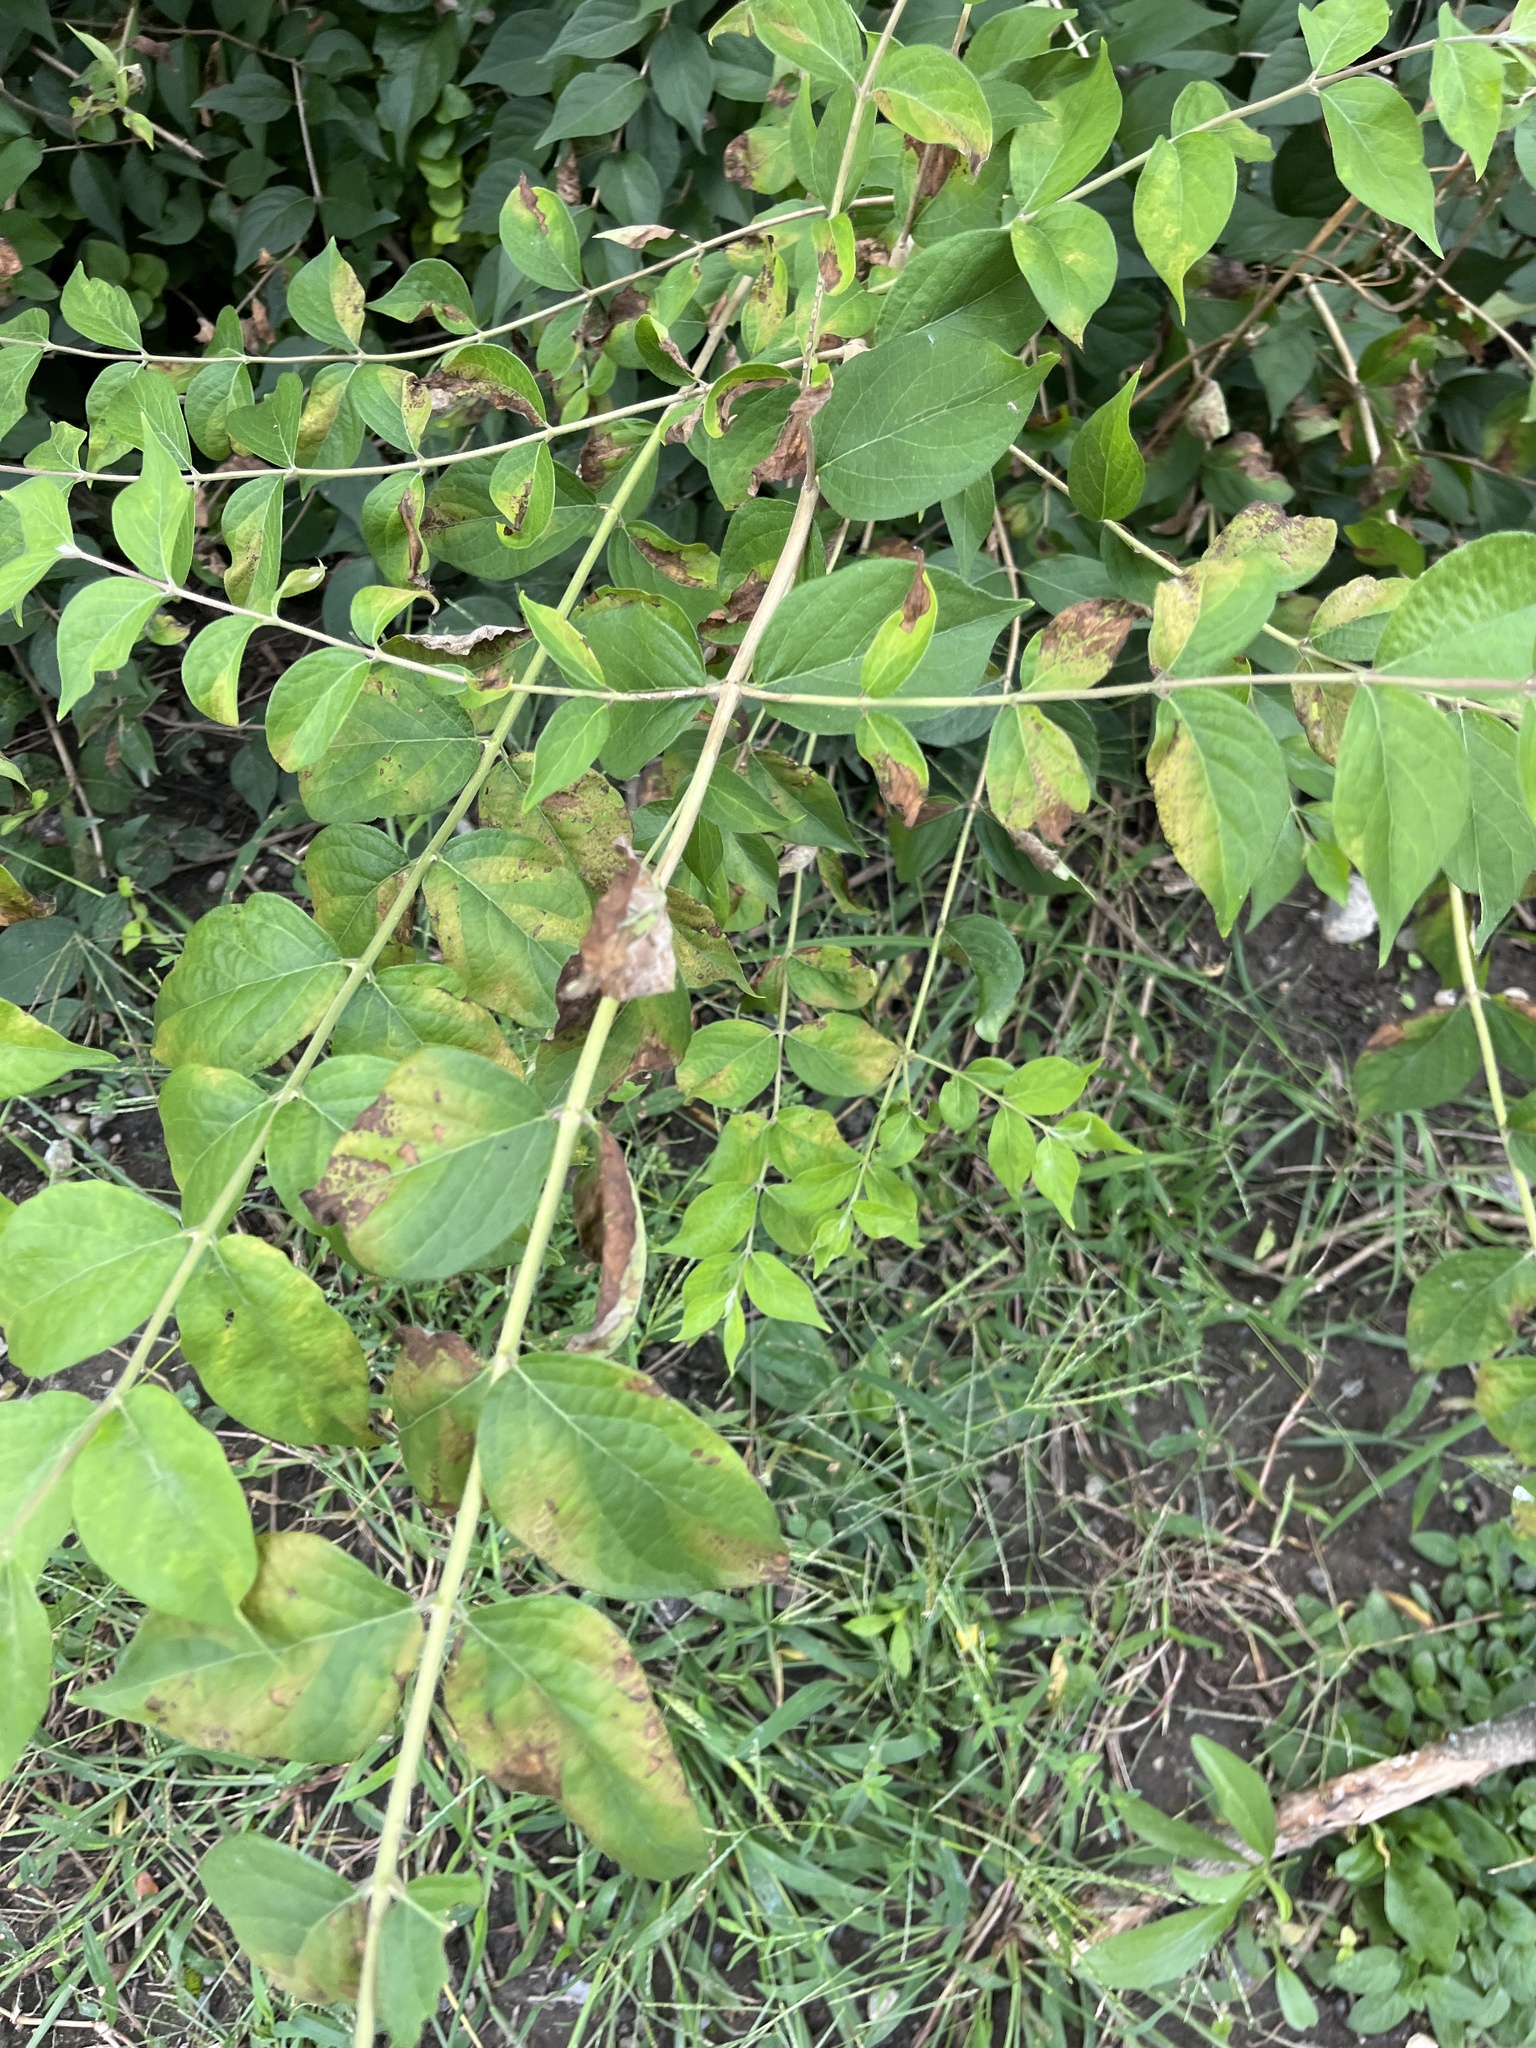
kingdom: Plantae
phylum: Tracheophyta
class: Magnoliopsida
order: Dipsacales
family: Caprifoliaceae
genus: Lonicera
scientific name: Lonicera maackii
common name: Amur honeysuckle
